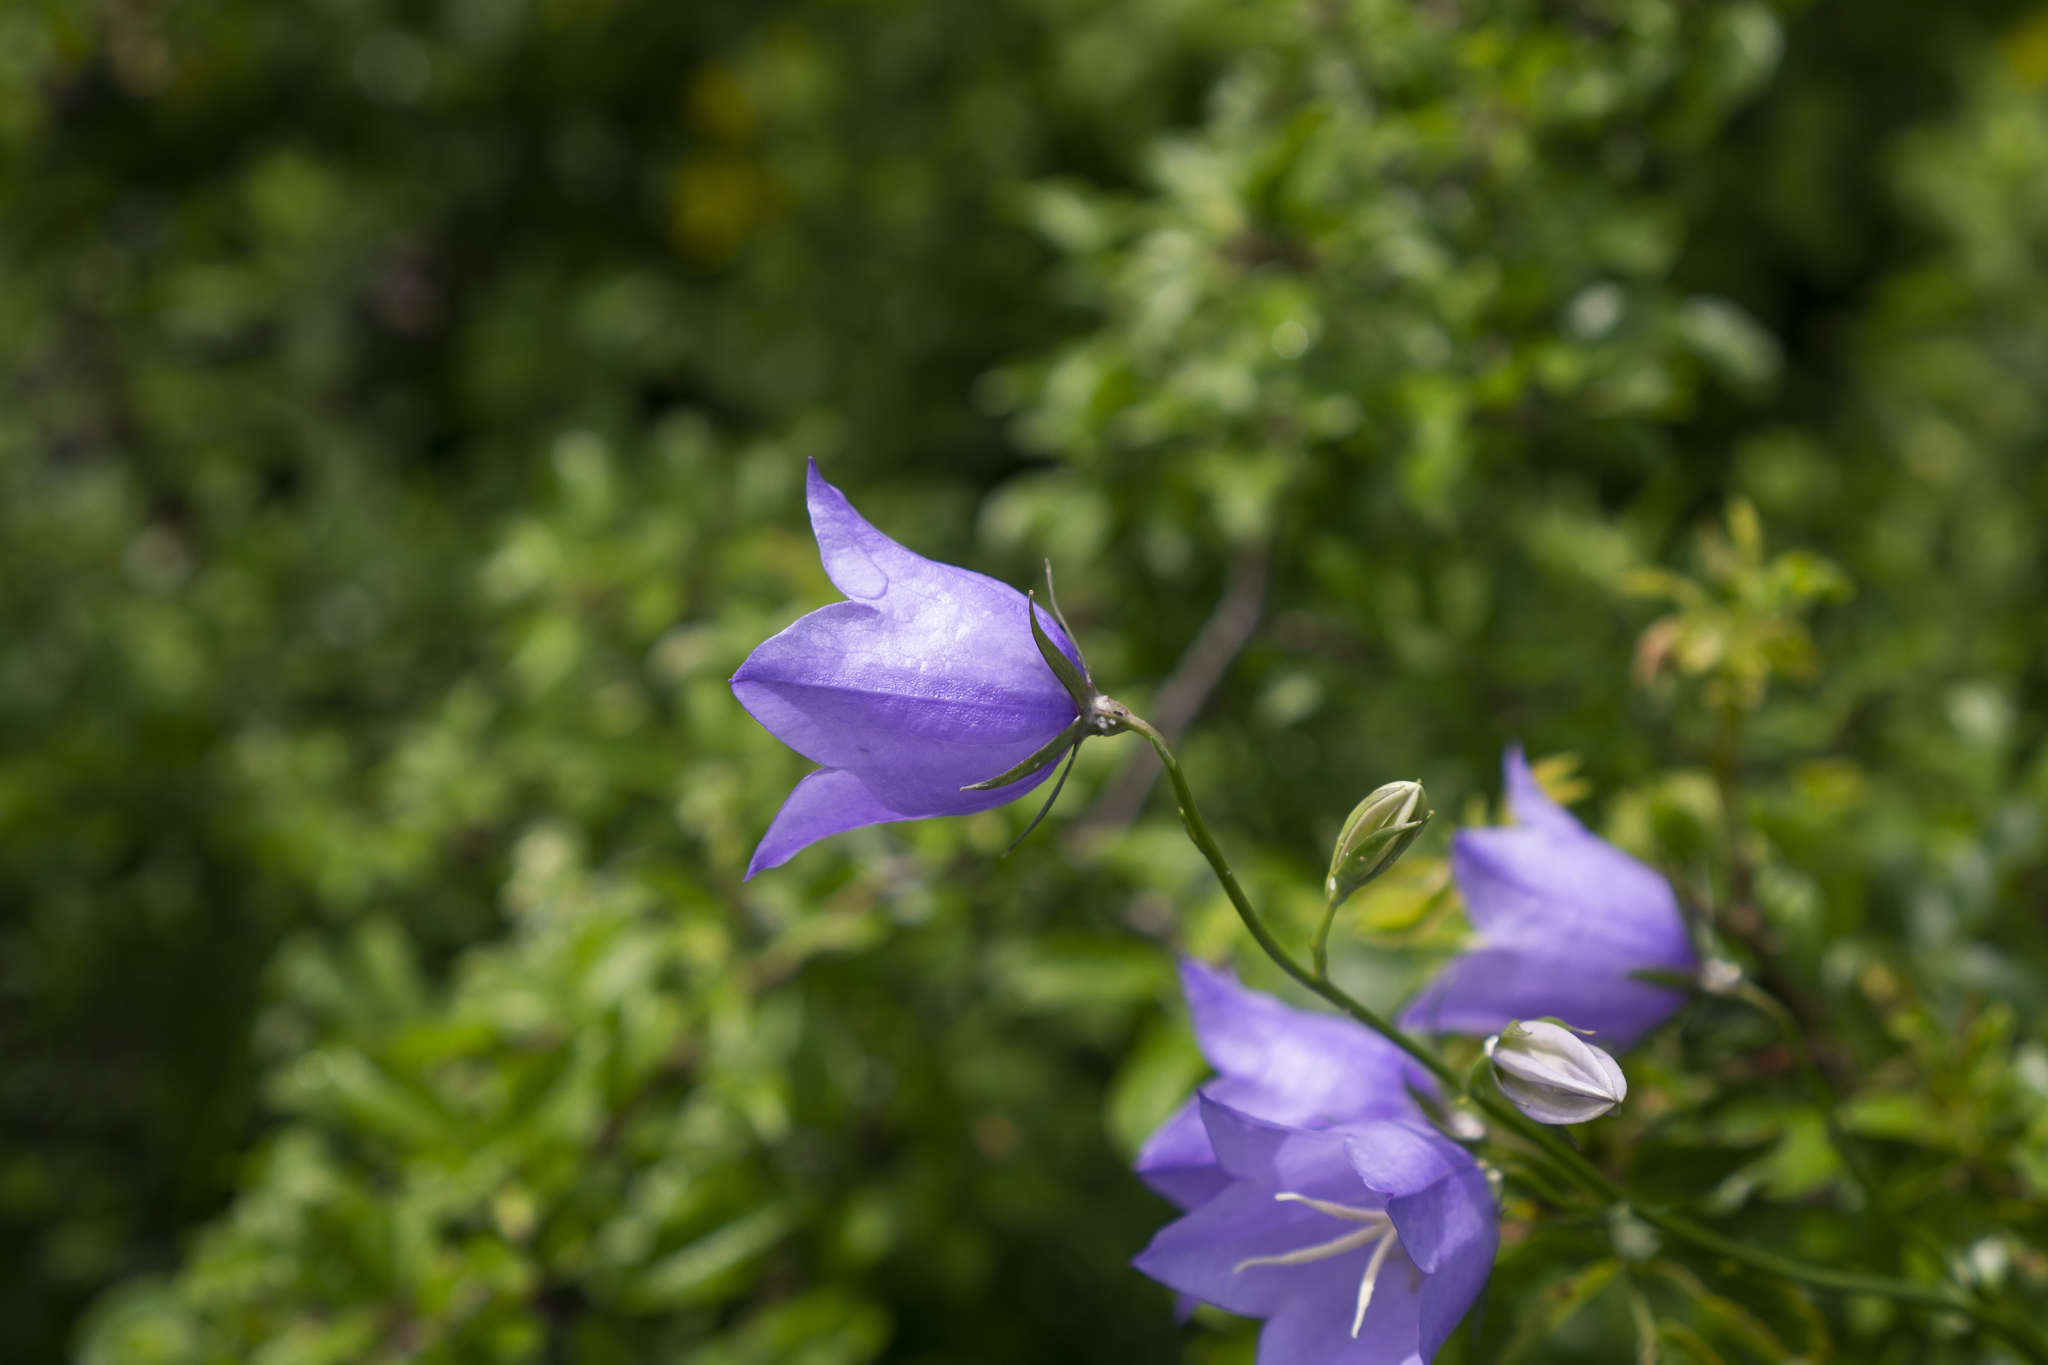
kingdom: Plantae
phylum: Tracheophyta
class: Magnoliopsida
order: Asterales
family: Campanulaceae
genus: Campanula
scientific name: Campanula persicifolia
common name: Peach-leaved bellflower
